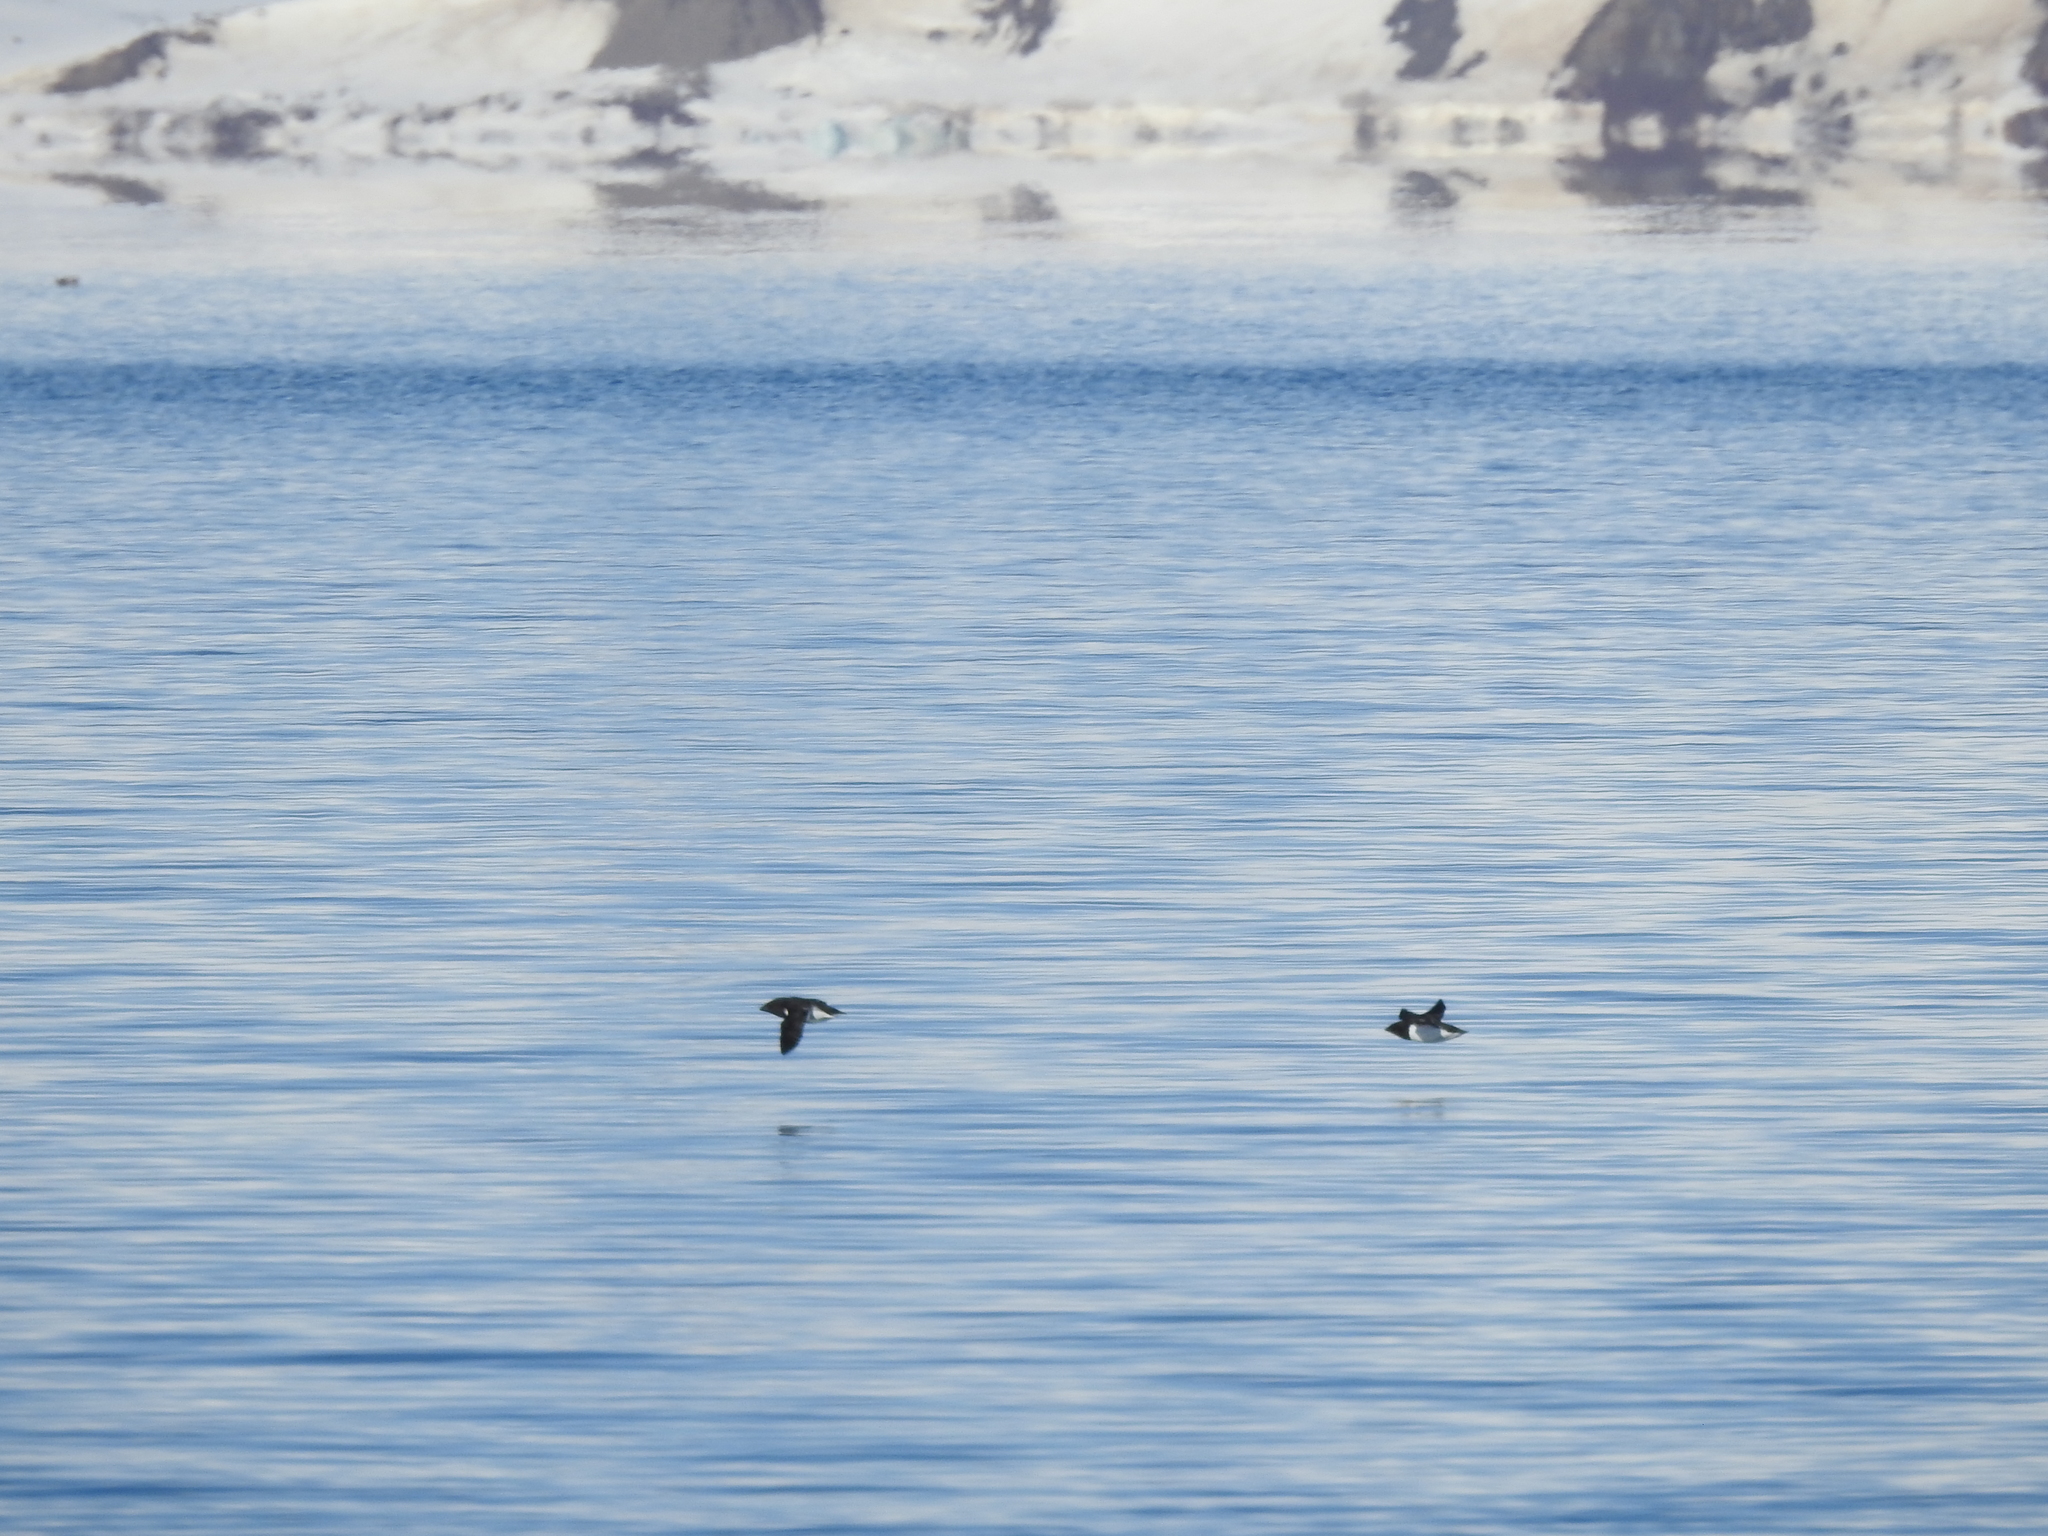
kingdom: Animalia
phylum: Chordata
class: Aves
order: Charadriiformes
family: Alcidae
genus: Alle
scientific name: Alle alle
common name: Little auk
